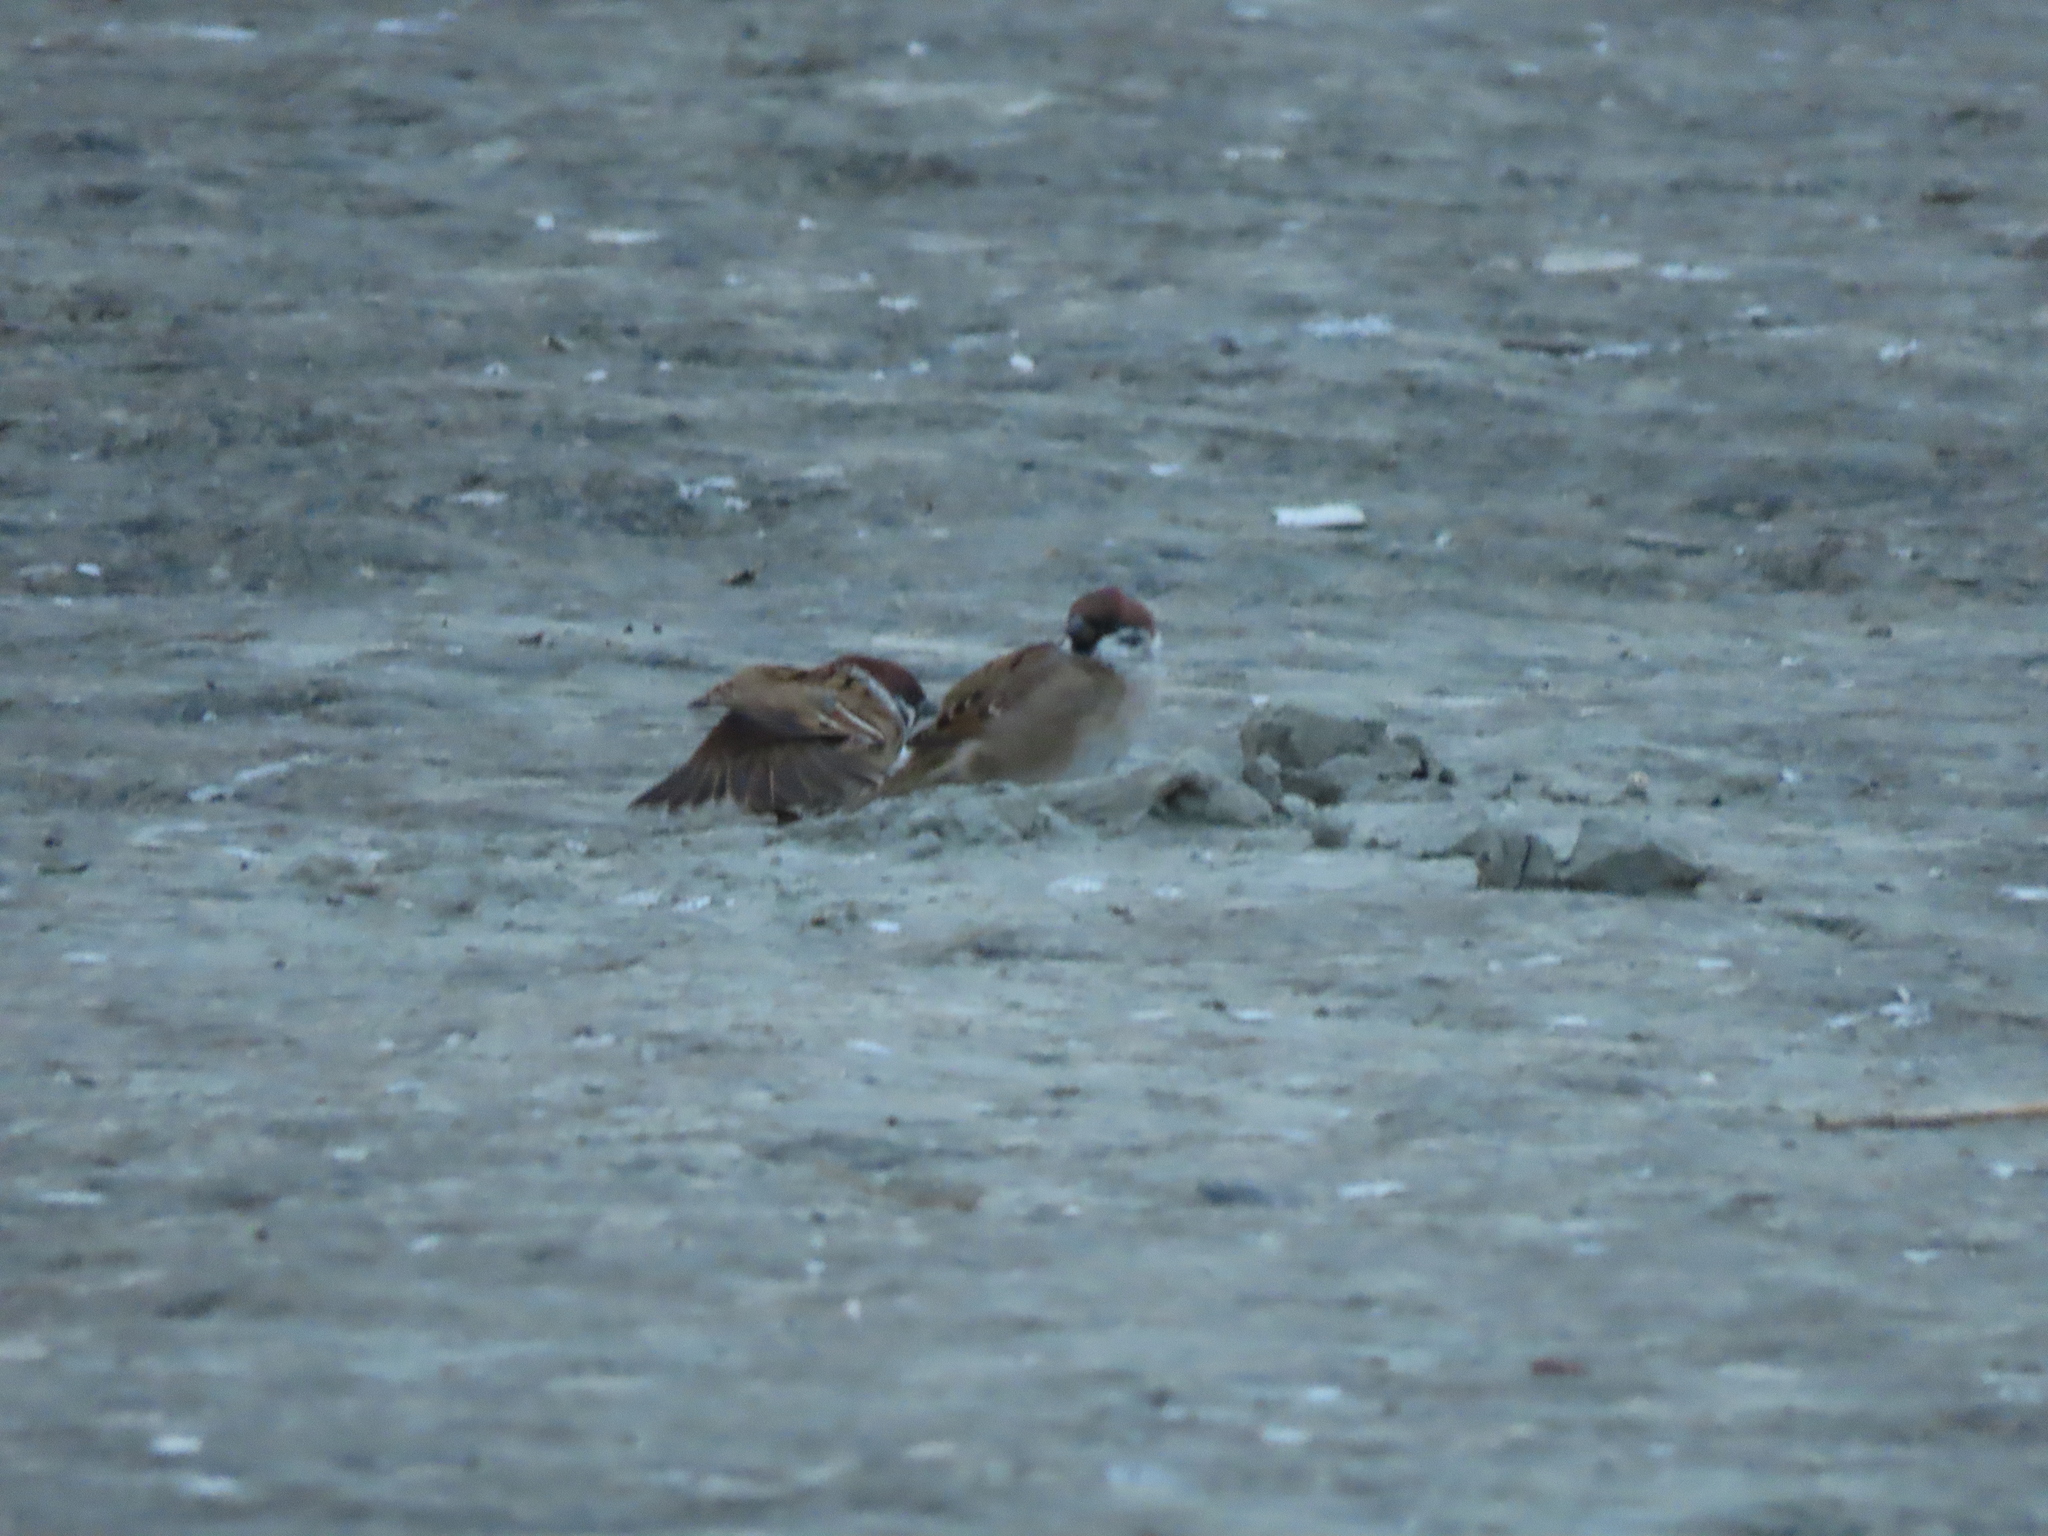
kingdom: Animalia
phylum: Chordata
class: Aves
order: Passeriformes
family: Passeridae
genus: Passer
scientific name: Passer montanus
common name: Eurasian tree sparrow
